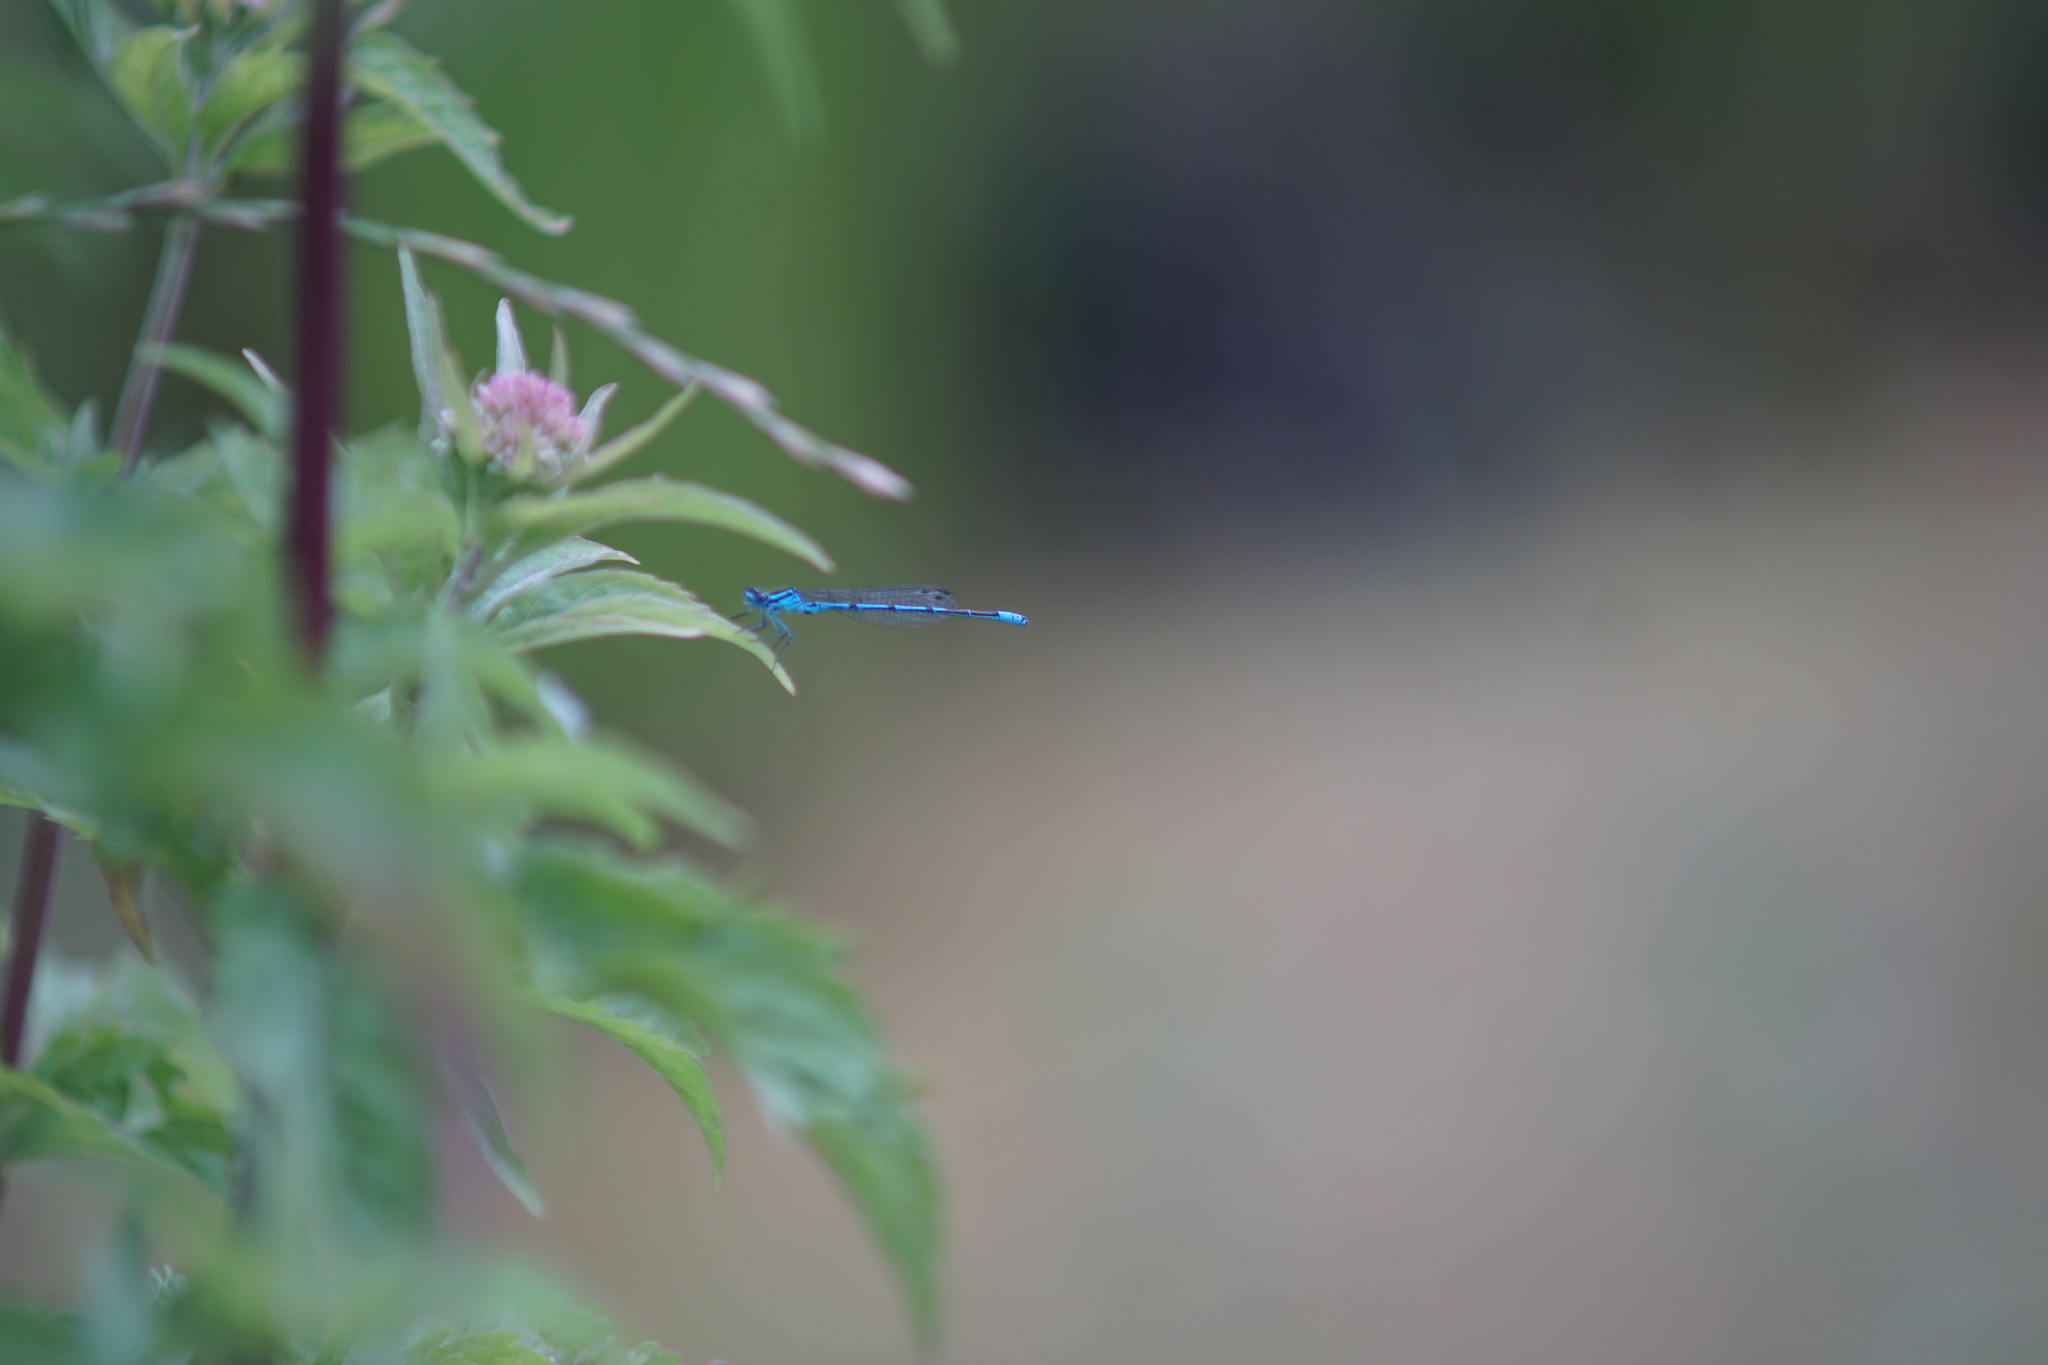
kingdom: Animalia
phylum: Arthropoda
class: Insecta
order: Odonata
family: Coenagrionidae
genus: Coenagrion
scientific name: Coenagrion puella
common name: Azure damselfly
